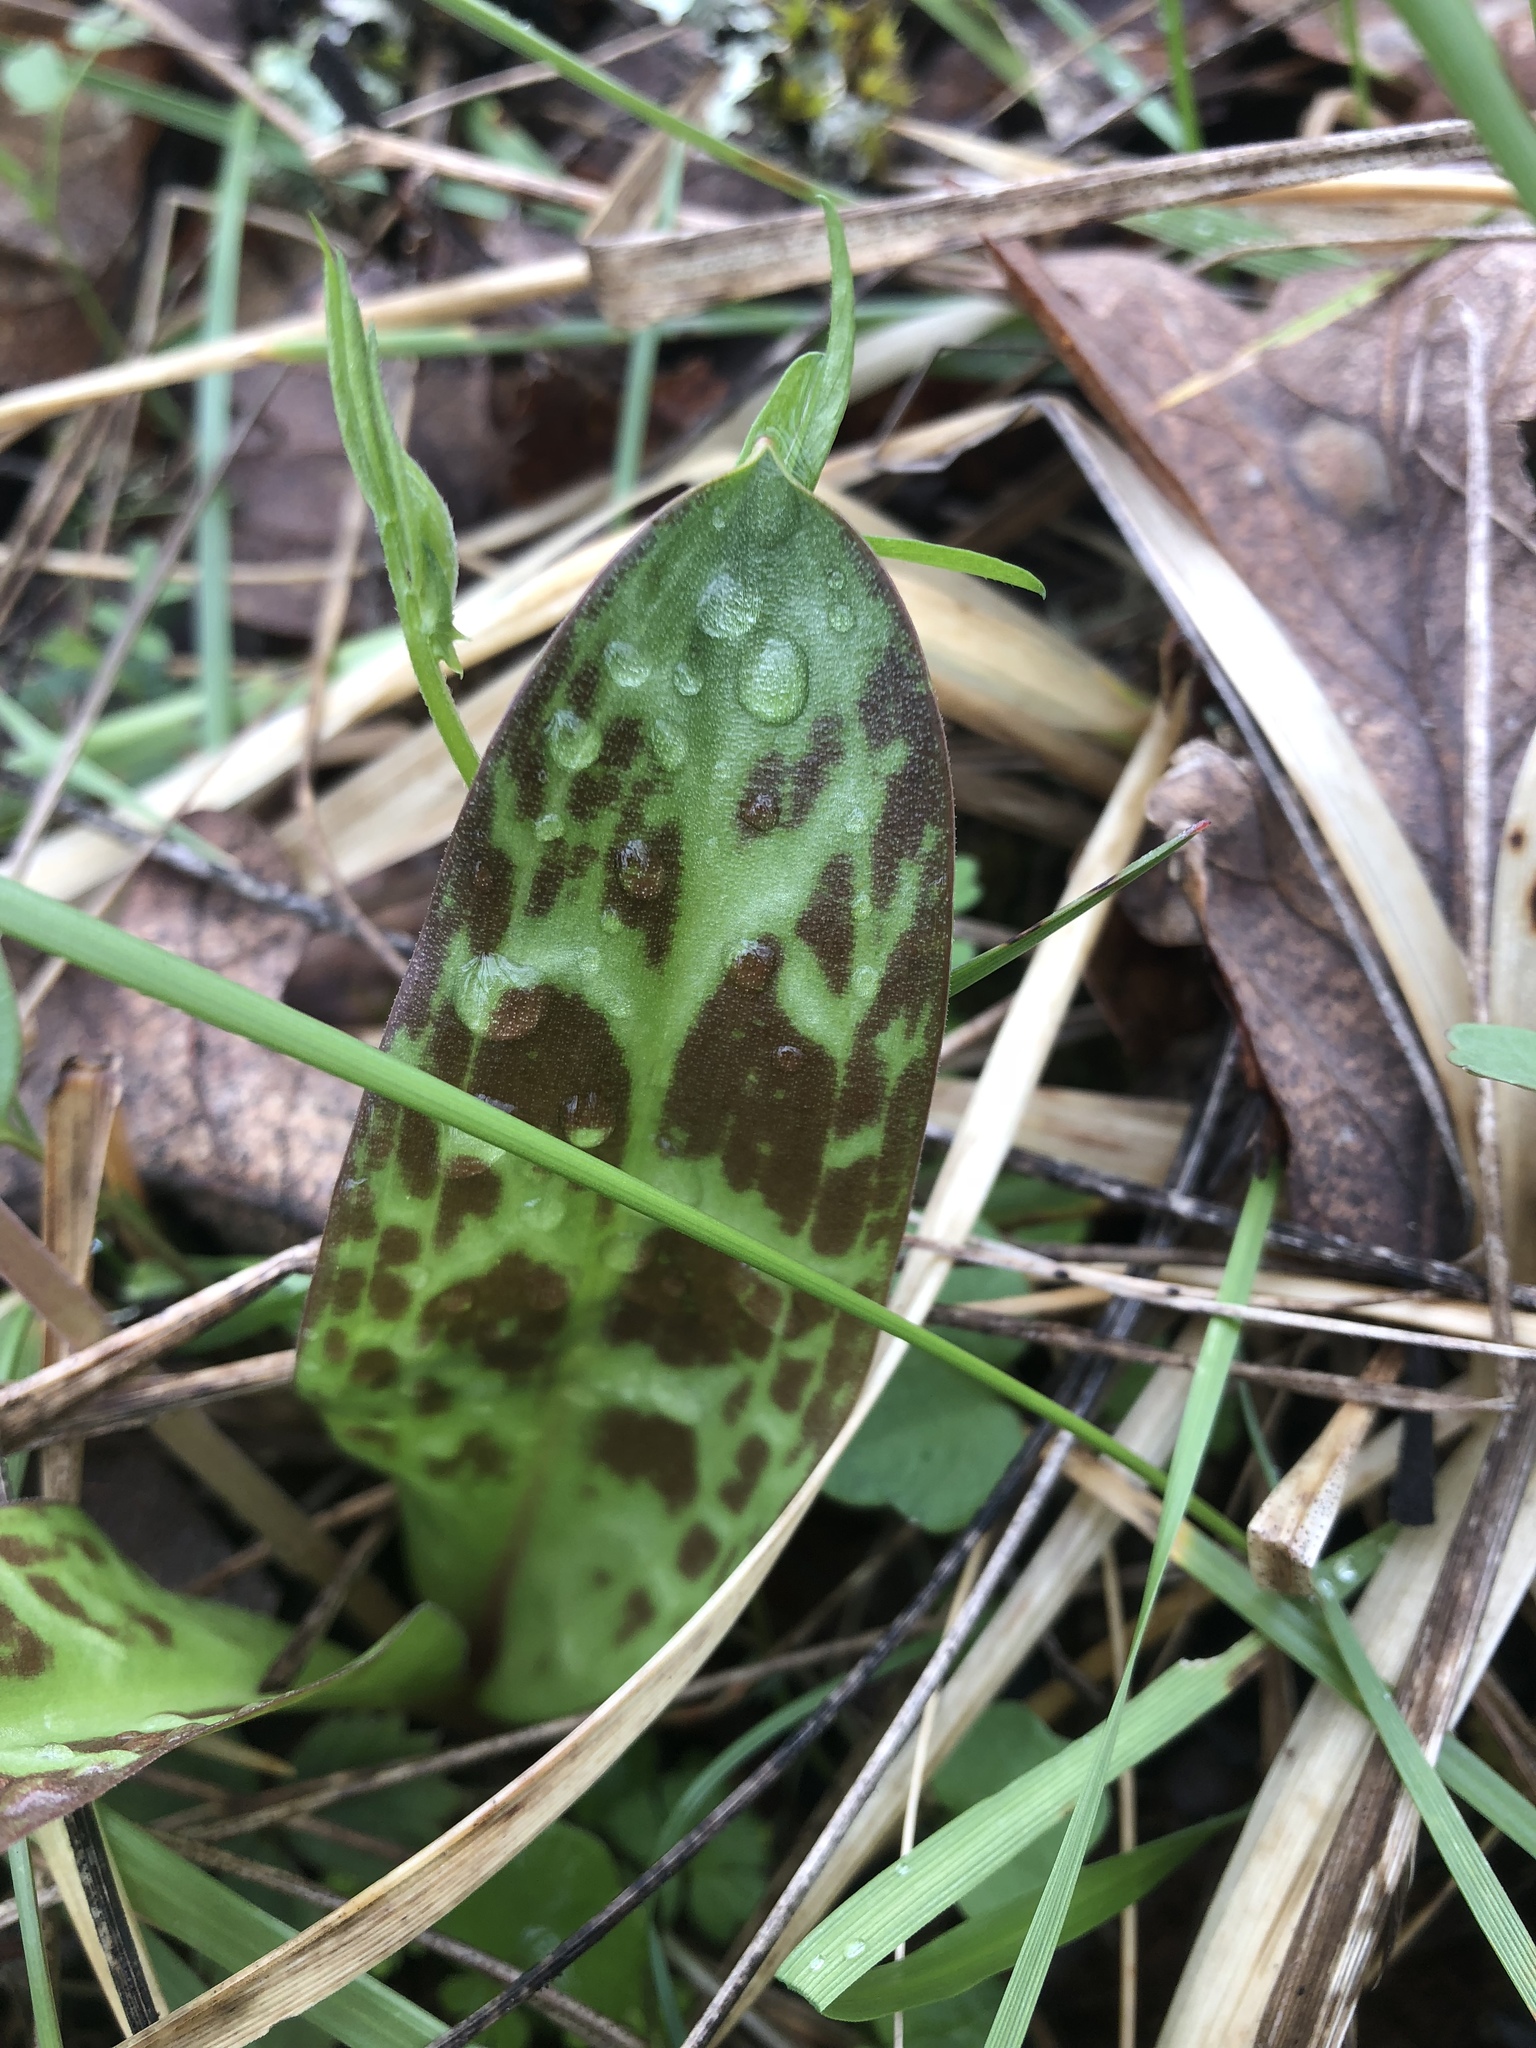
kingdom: Plantae
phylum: Tracheophyta
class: Liliopsida
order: Liliales
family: Liliaceae
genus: Erythronium
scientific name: Erythronium oregonum
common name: Giant adder's-tongue
